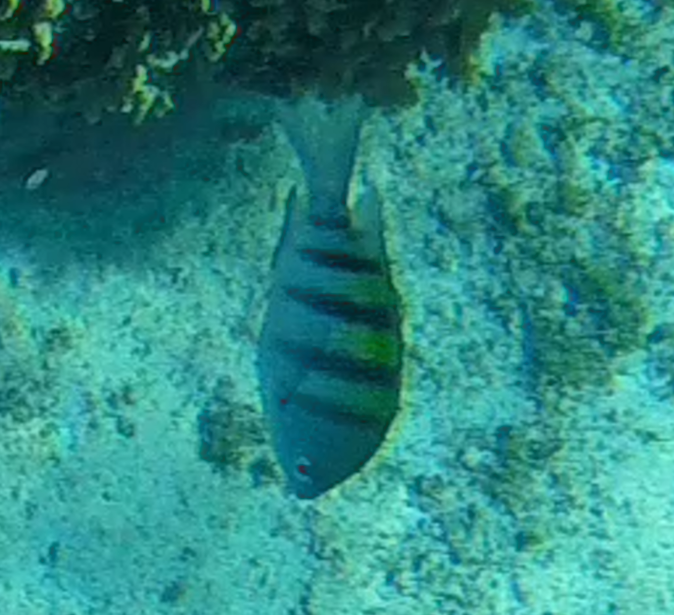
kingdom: Animalia
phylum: Chordata
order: Perciformes
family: Pomacentridae
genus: Abudefduf
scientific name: Abudefduf saxatilis
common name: Sergeant major
